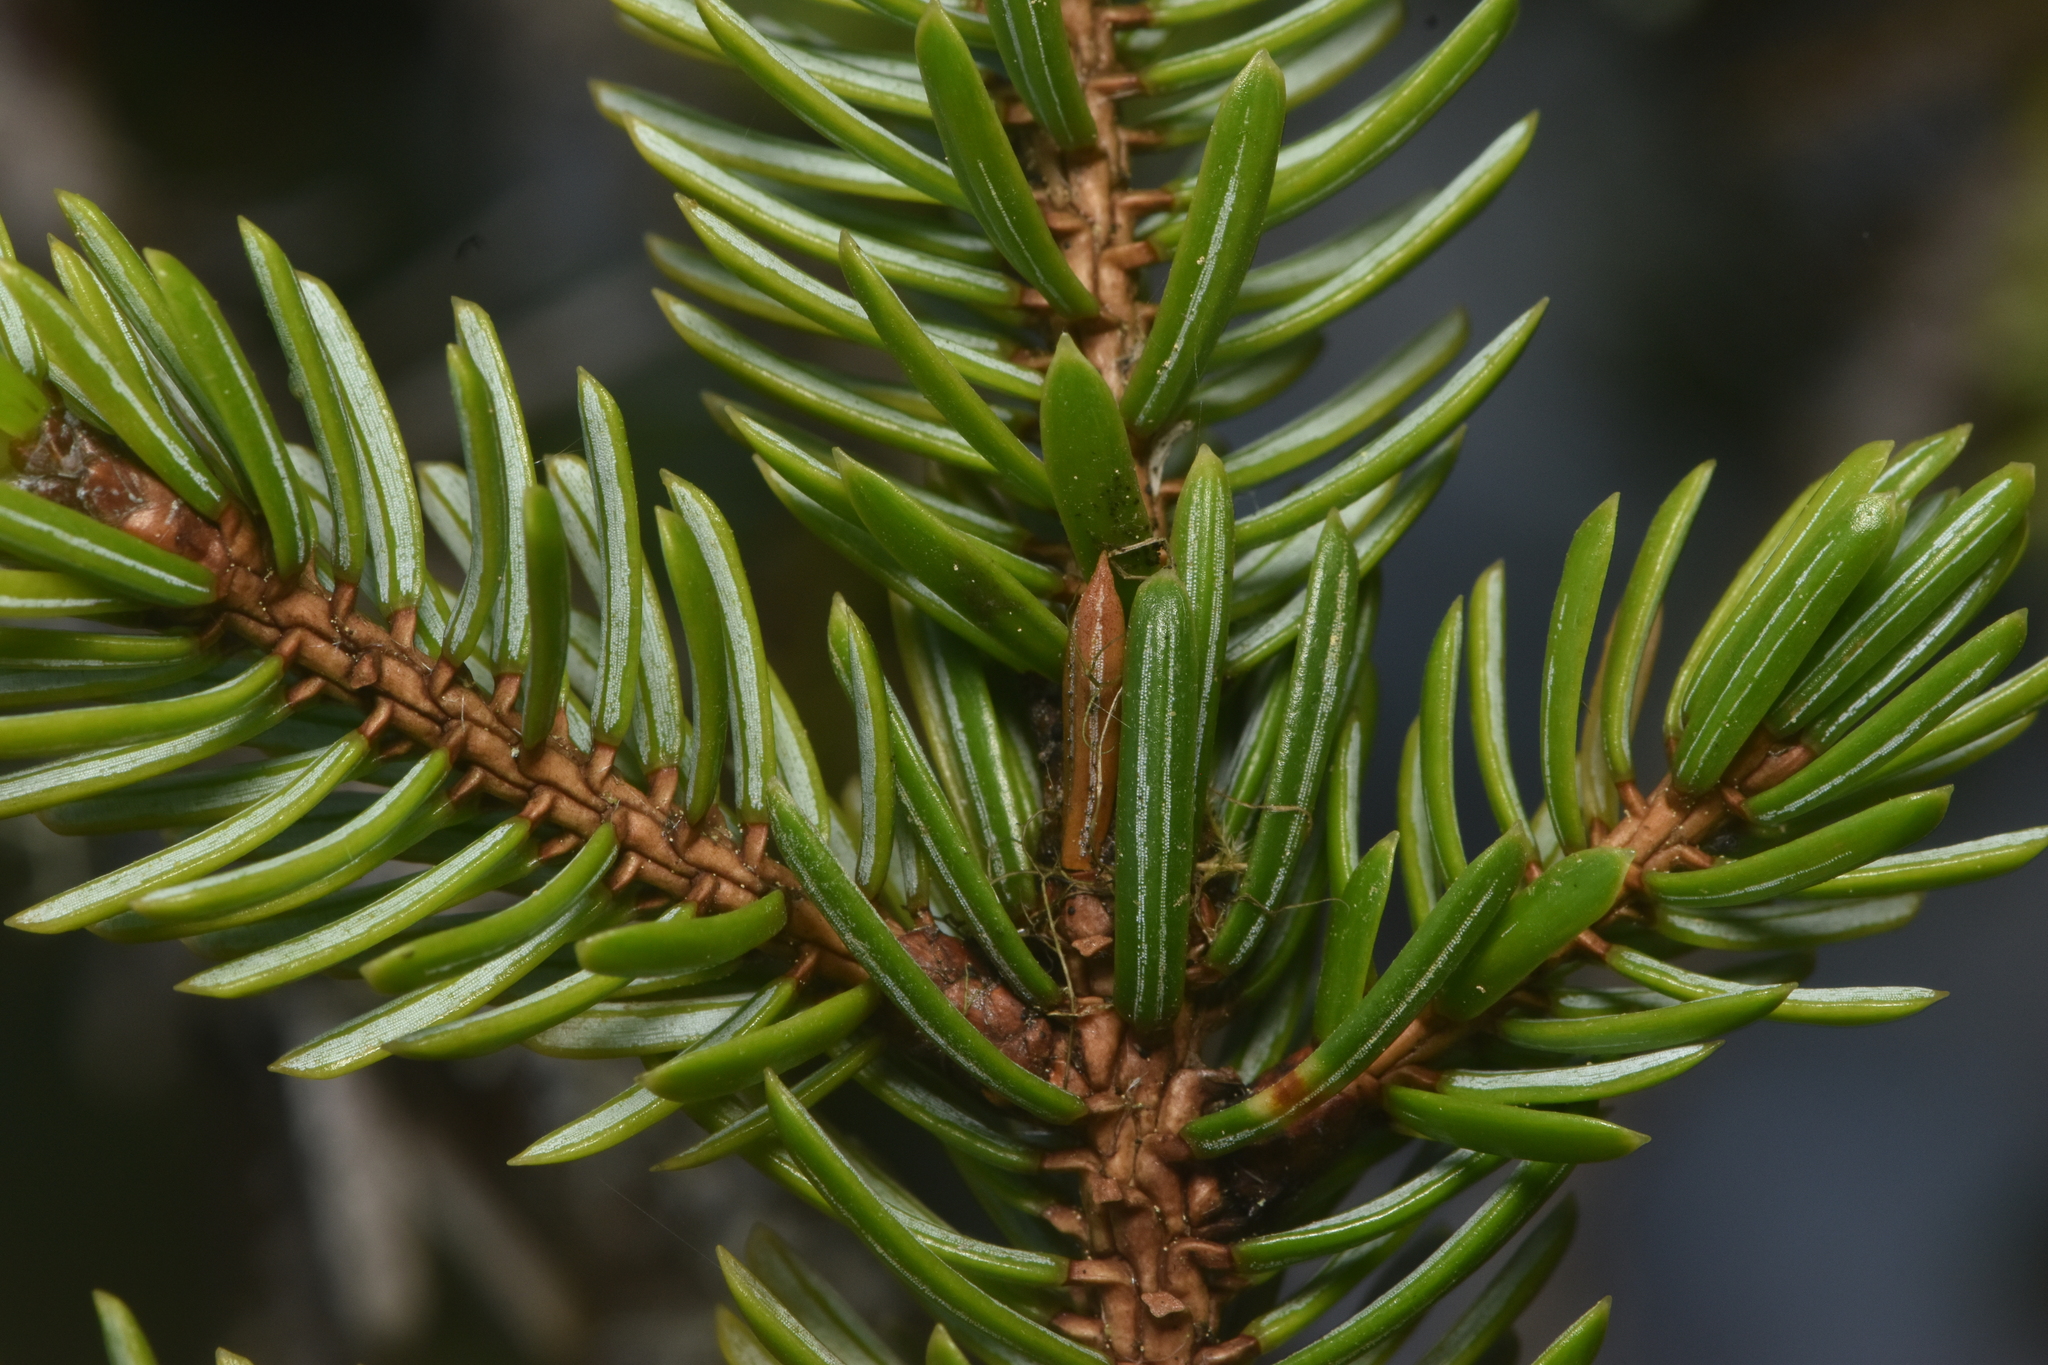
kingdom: Plantae
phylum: Tracheophyta
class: Pinopsida
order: Pinales
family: Pinaceae
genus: Picea
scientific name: Picea sitchensis
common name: Sitka spruce
